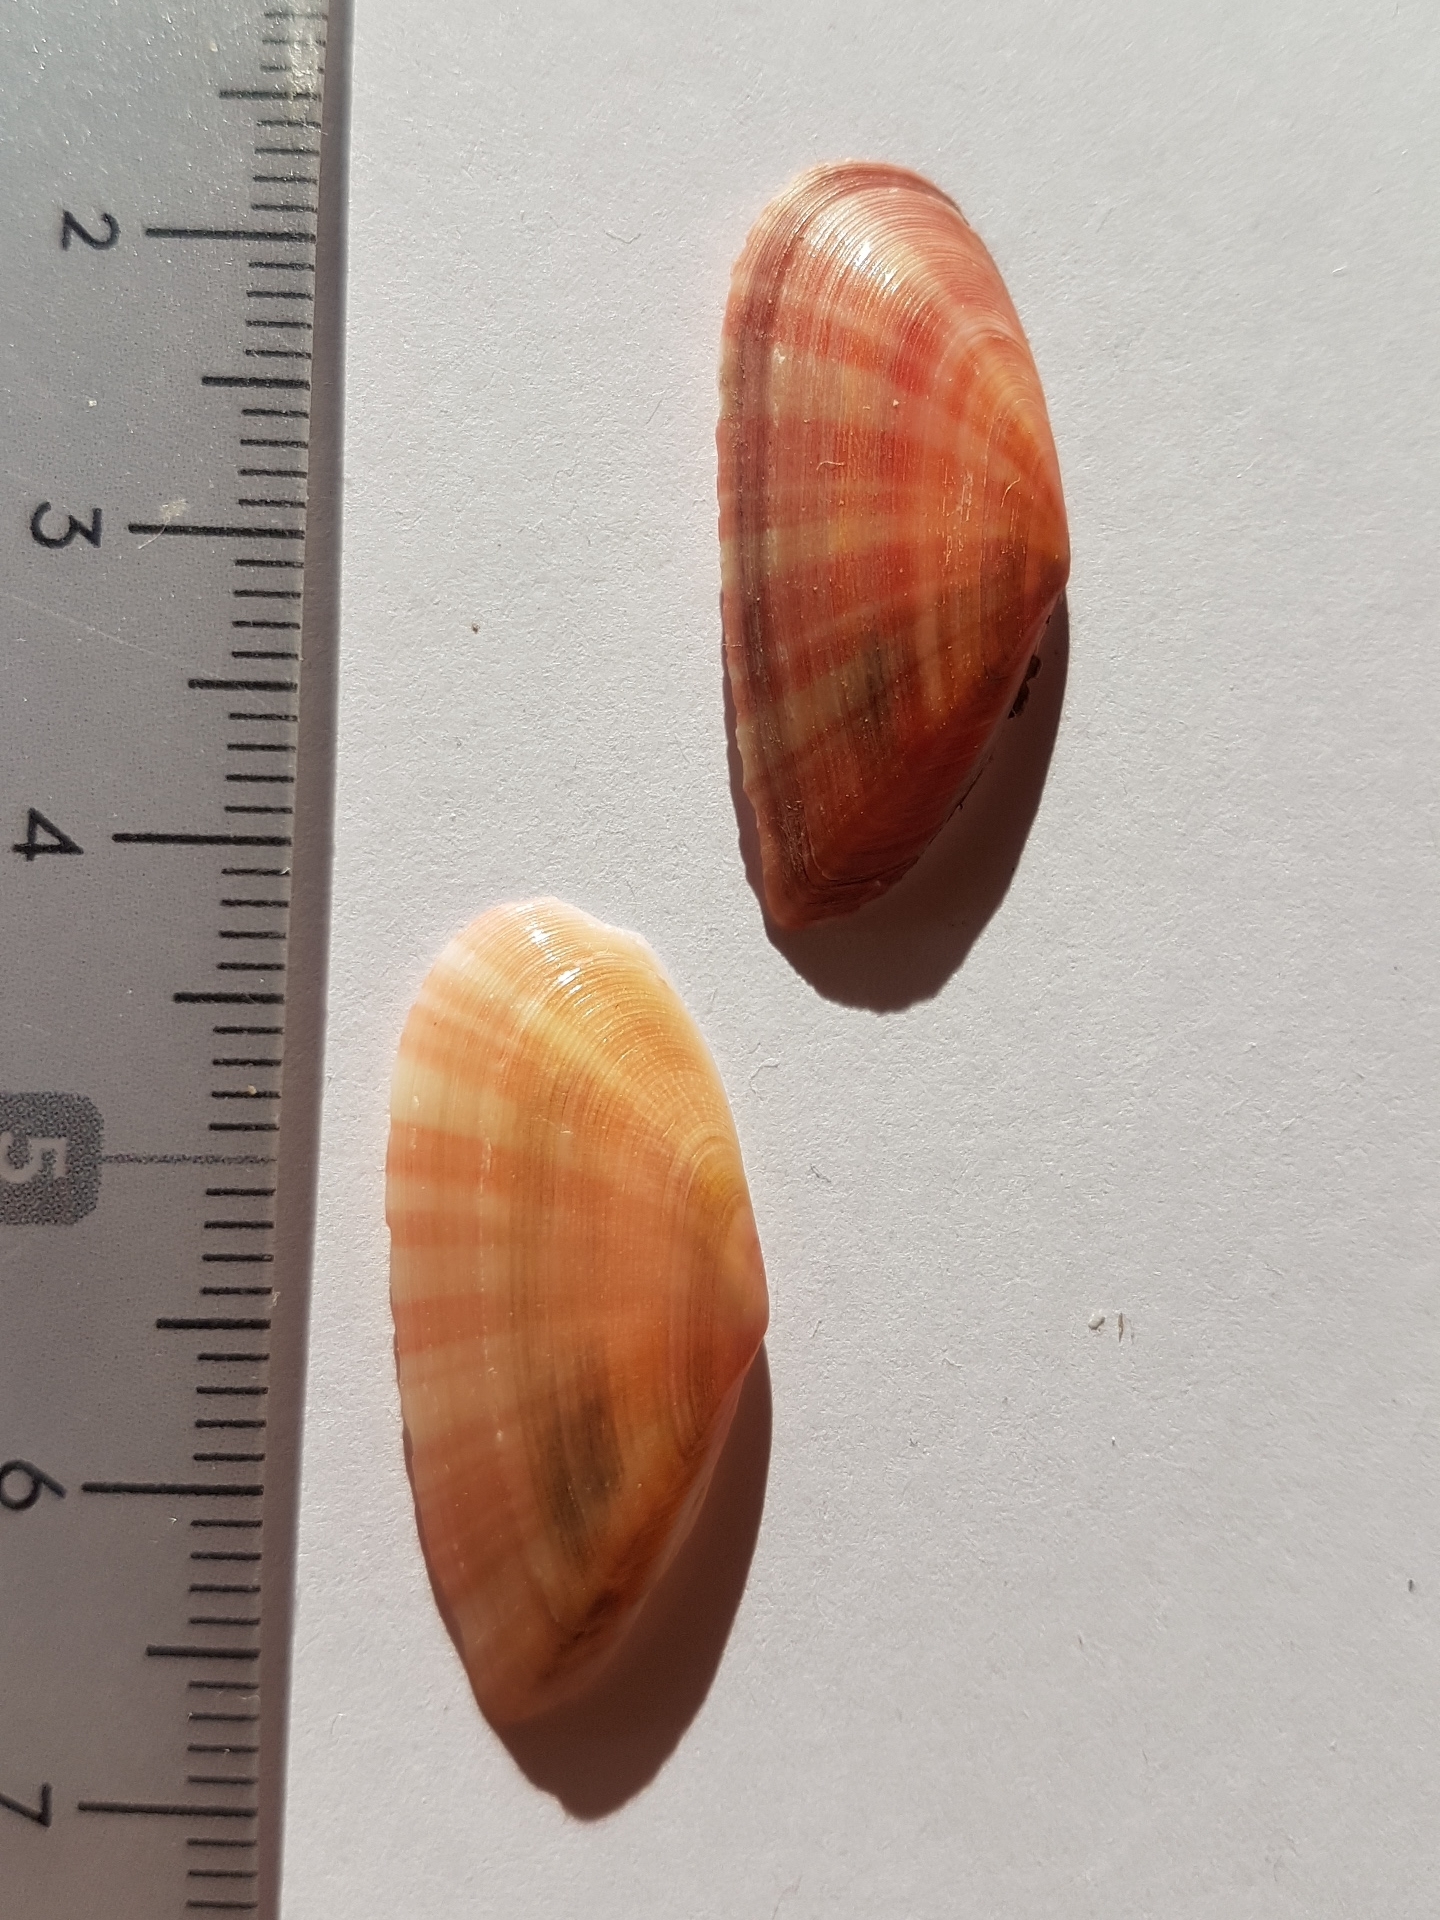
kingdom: Animalia
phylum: Mollusca
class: Bivalvia
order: Cardiida
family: Tellinidae
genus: Moerella
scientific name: Moerella pulchella
